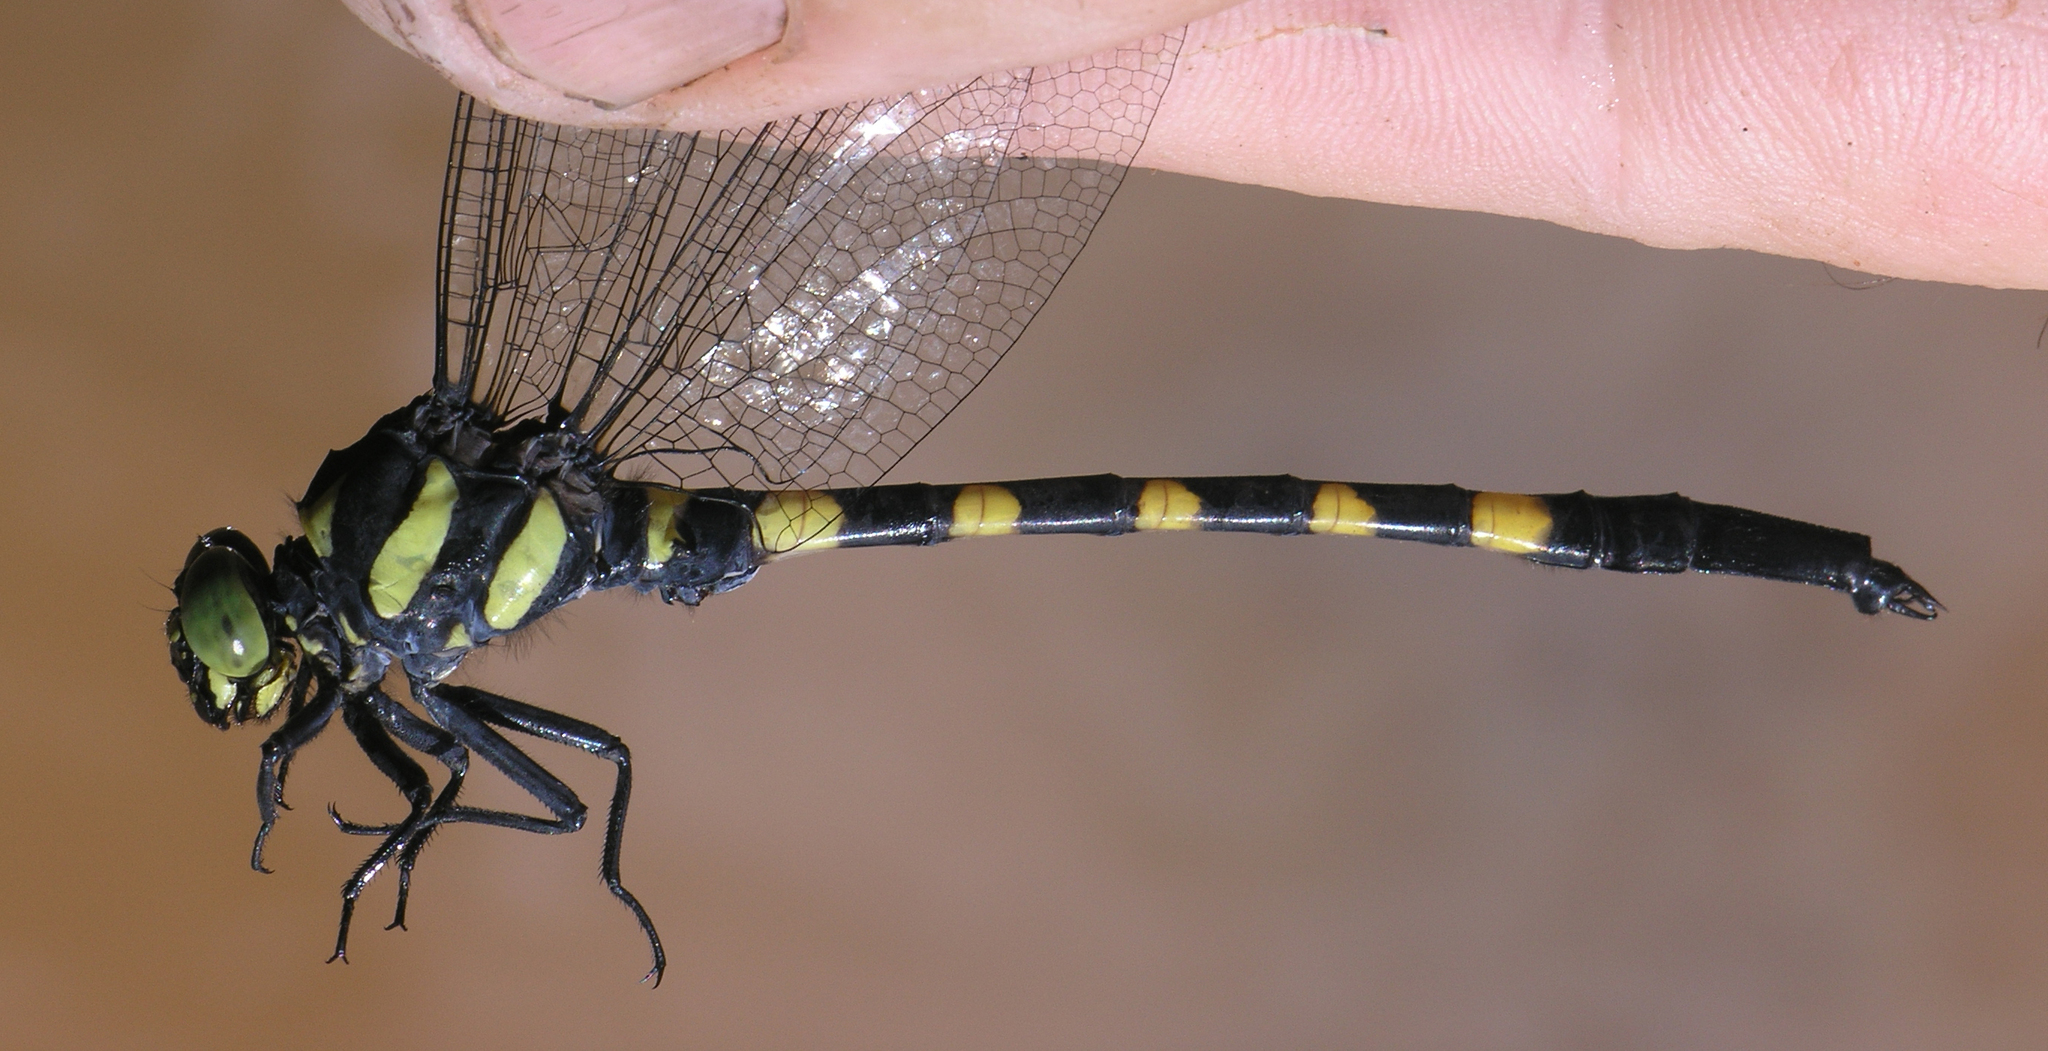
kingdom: Animalia
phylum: Arthropoda
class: Insecta
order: Odonata
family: Gomphidae
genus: Macrogomphus
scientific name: Macrogomphus kerri
